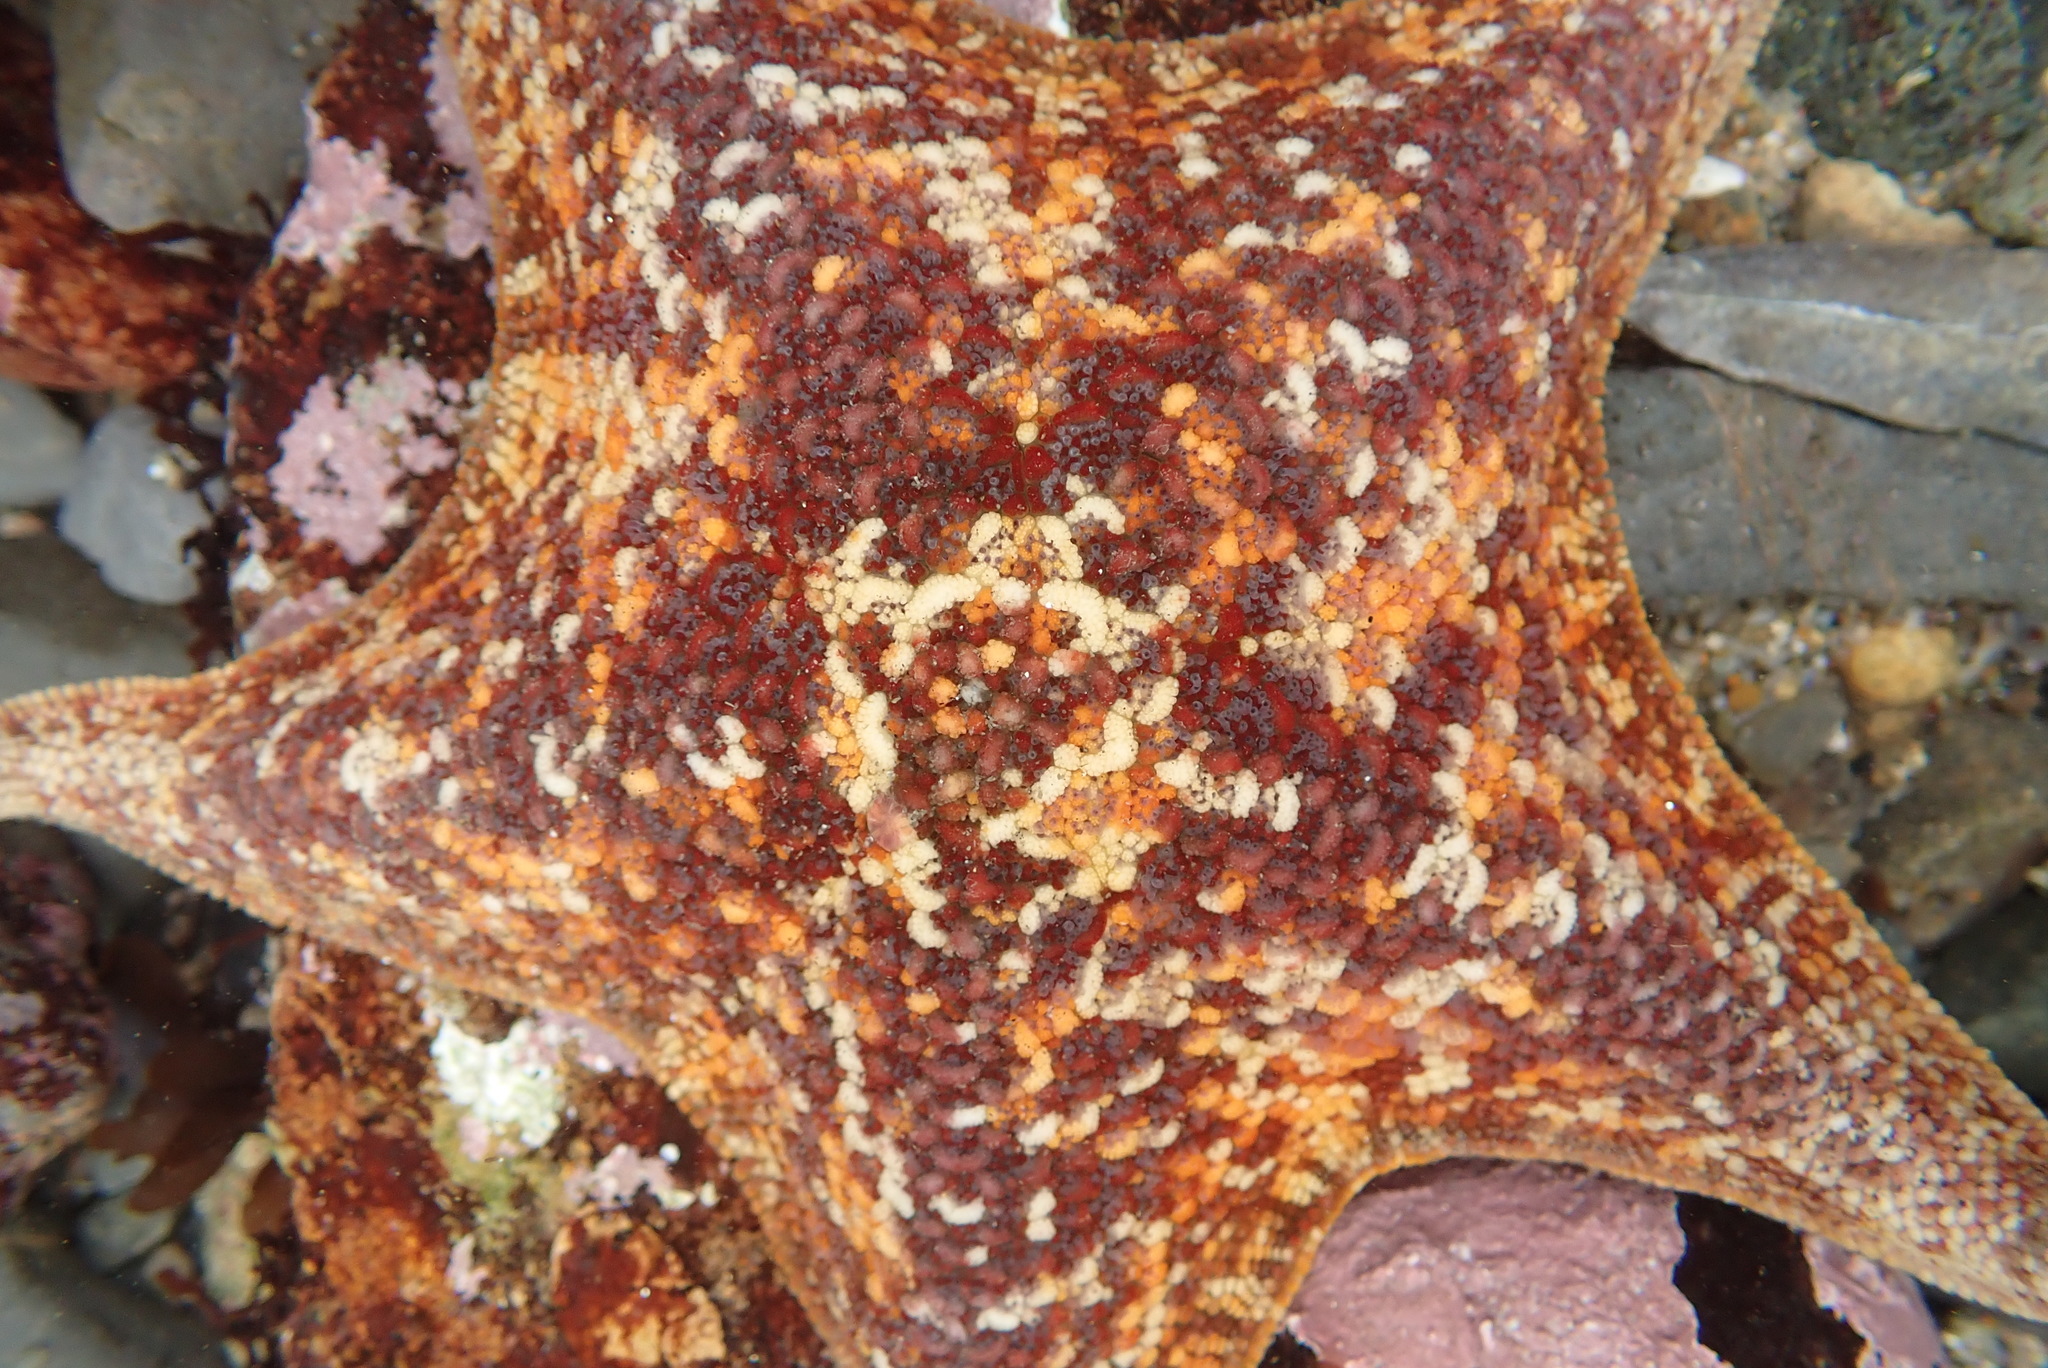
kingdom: Animalia
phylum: Echinodermata
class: Asteroidea
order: Valvatida
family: Asterinidae
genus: Patiria
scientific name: Patiria miniata
